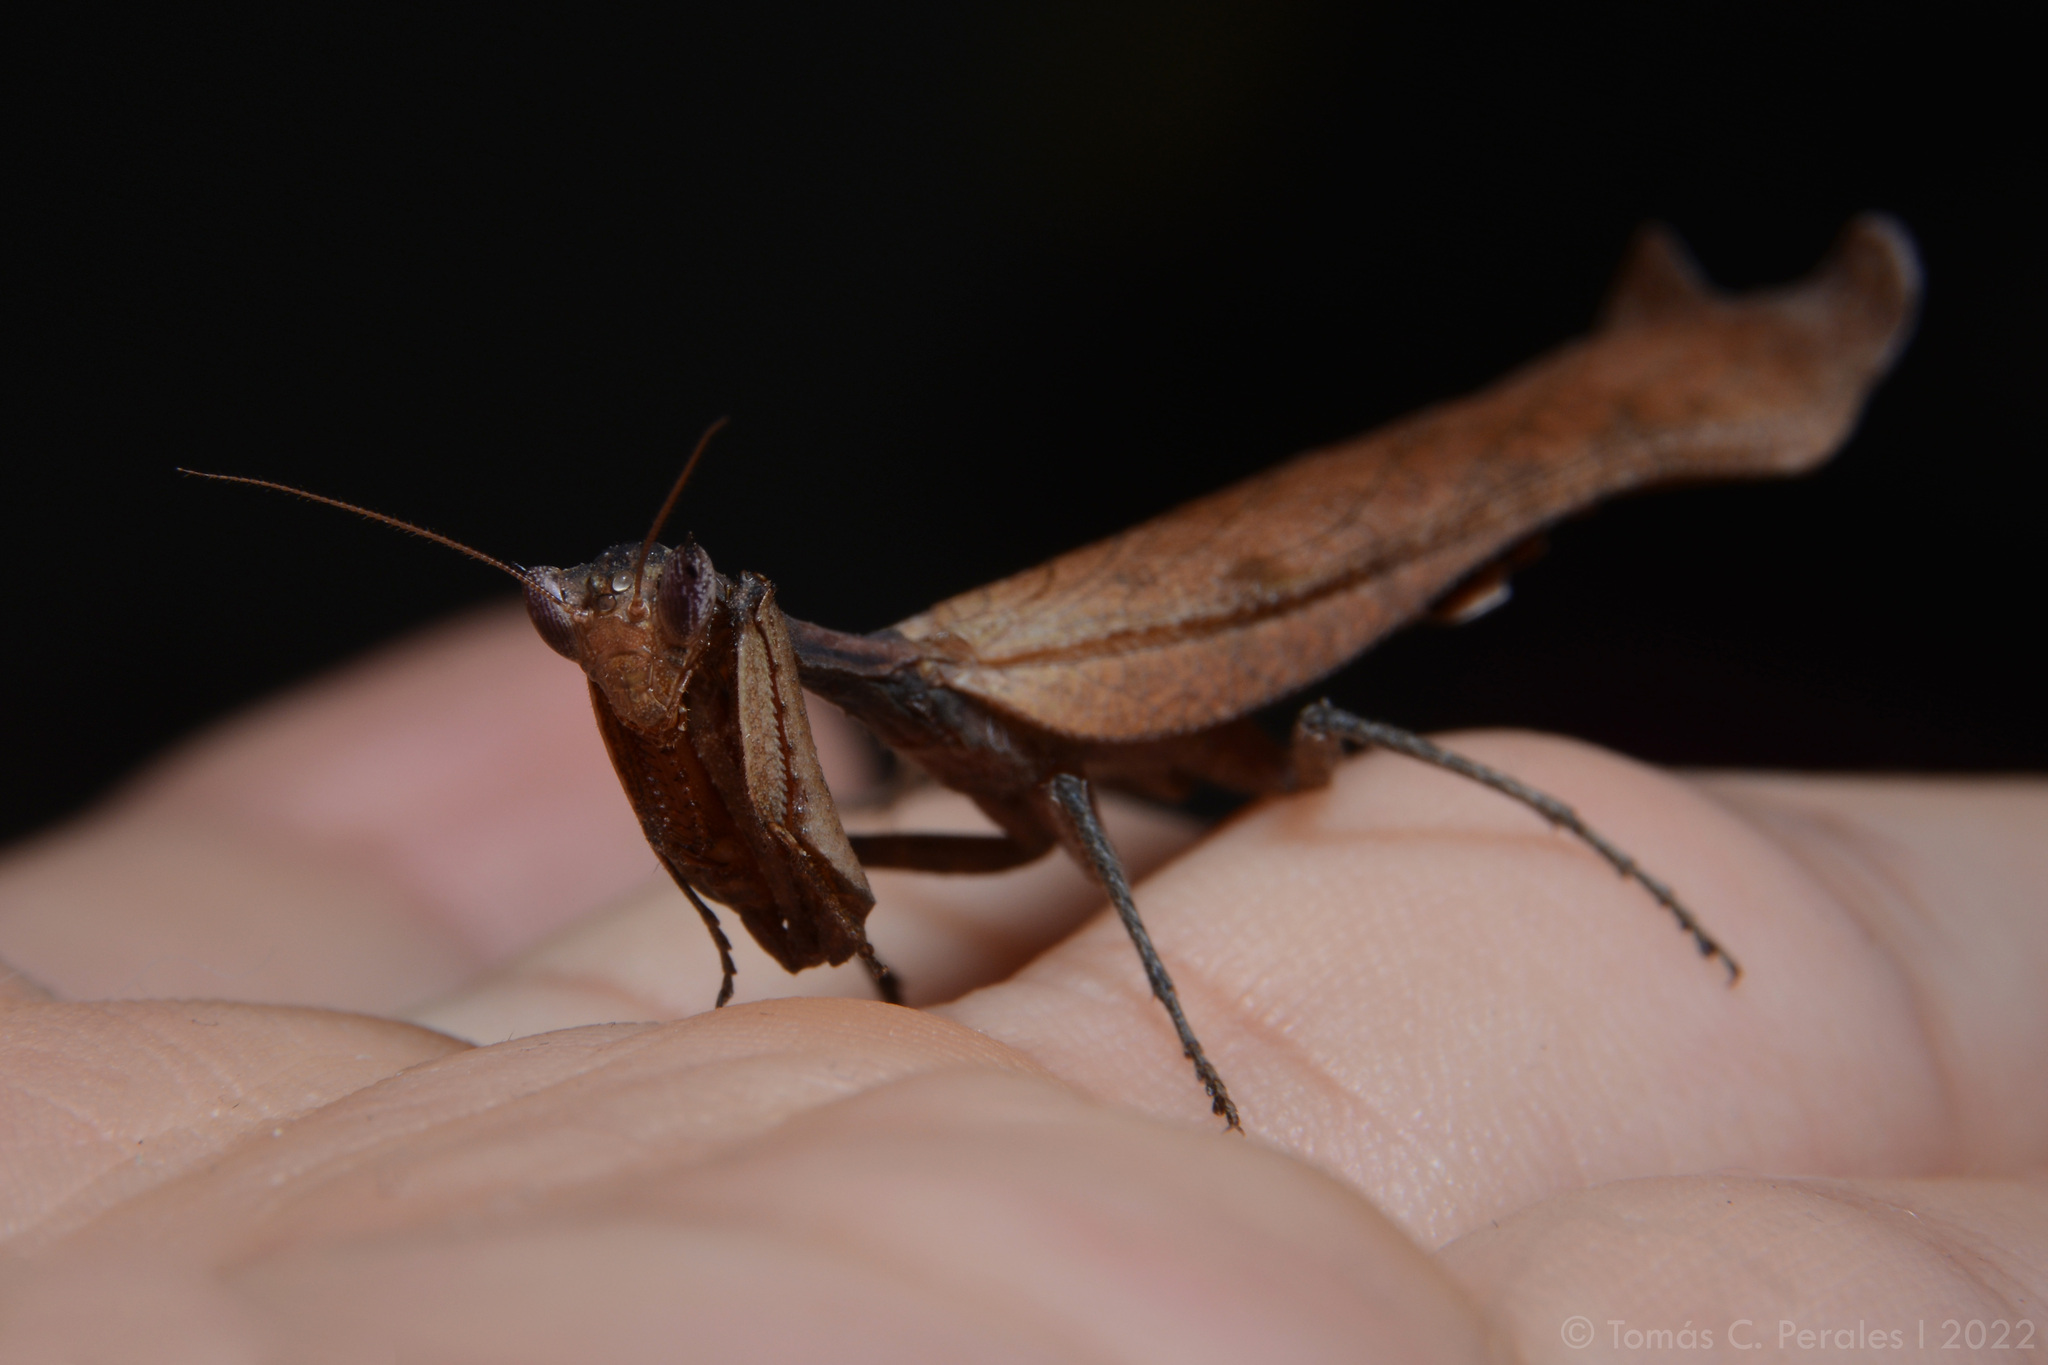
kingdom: Animalia
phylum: Arthropoda
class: Insecta
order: Mantodea
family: Acanthopidae
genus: Decimiana
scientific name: Decimiana rehni
